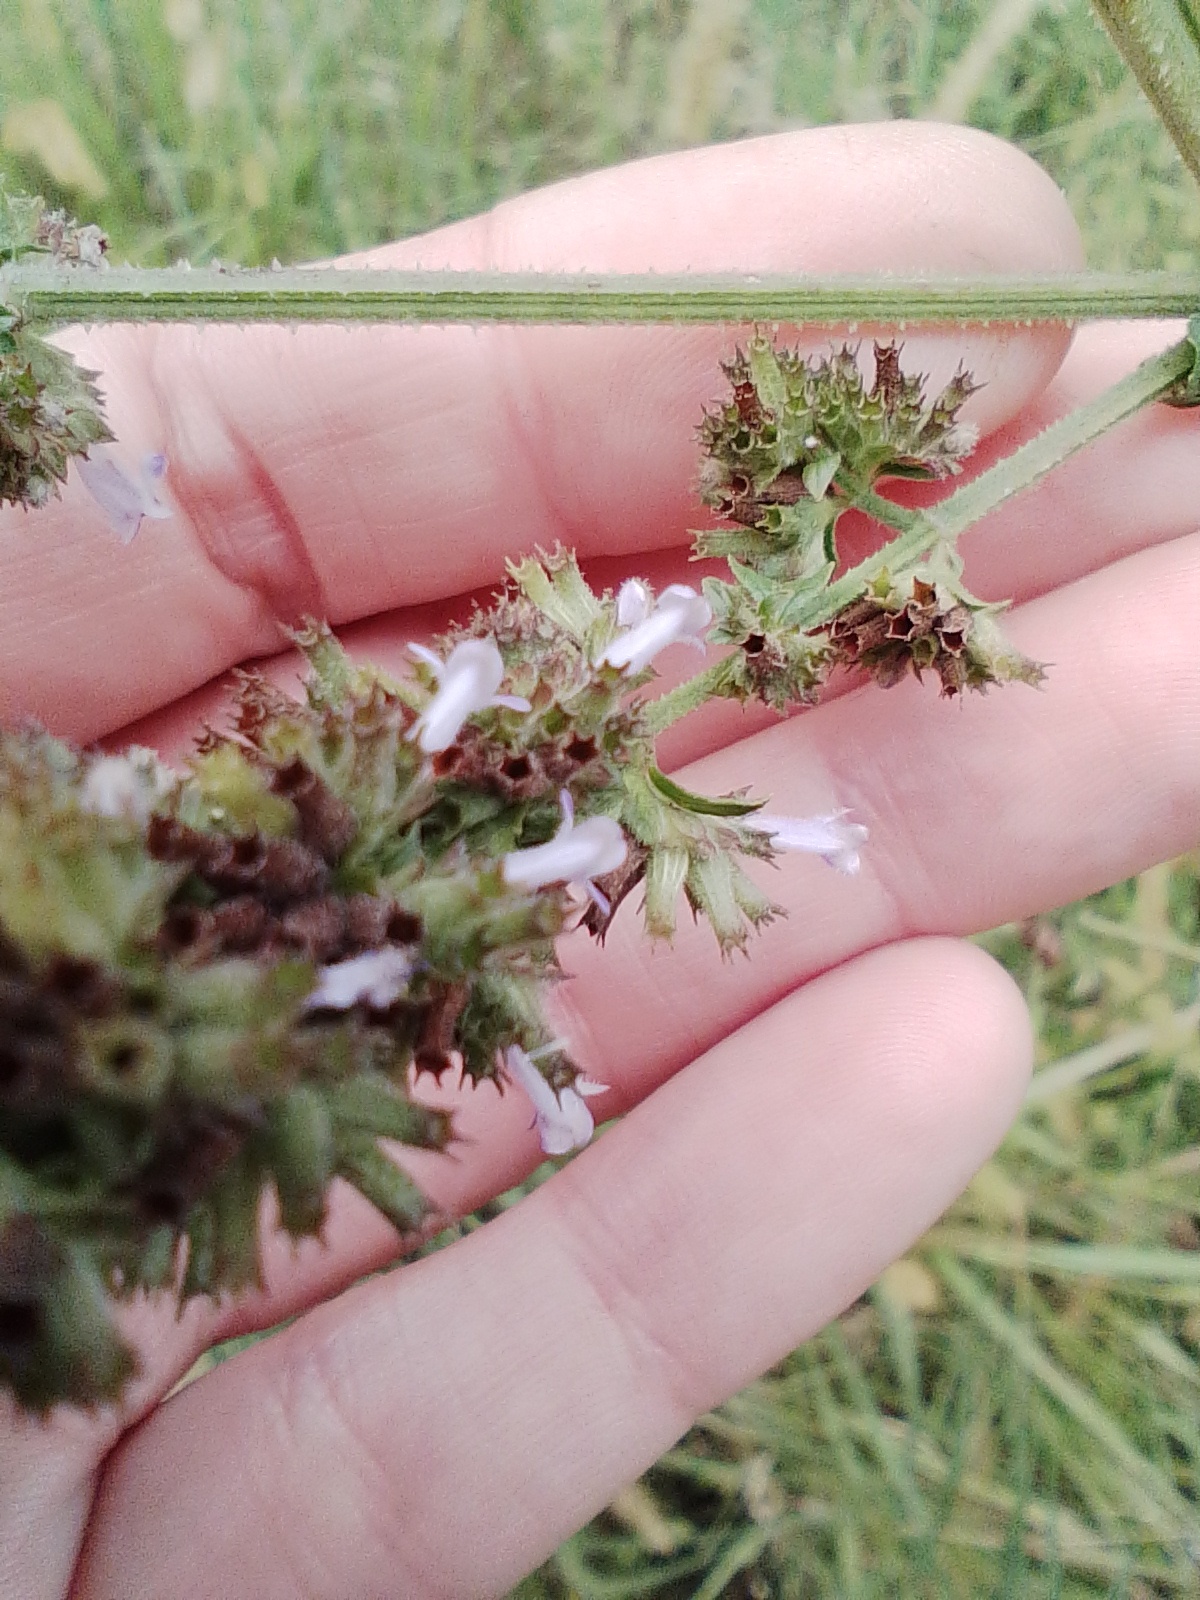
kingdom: Plantae
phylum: Tracheophyta
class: Magnoliopsida
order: Lamiales
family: Lamiaceae
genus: Cantinoa
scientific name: Cantinoa mutabilis
